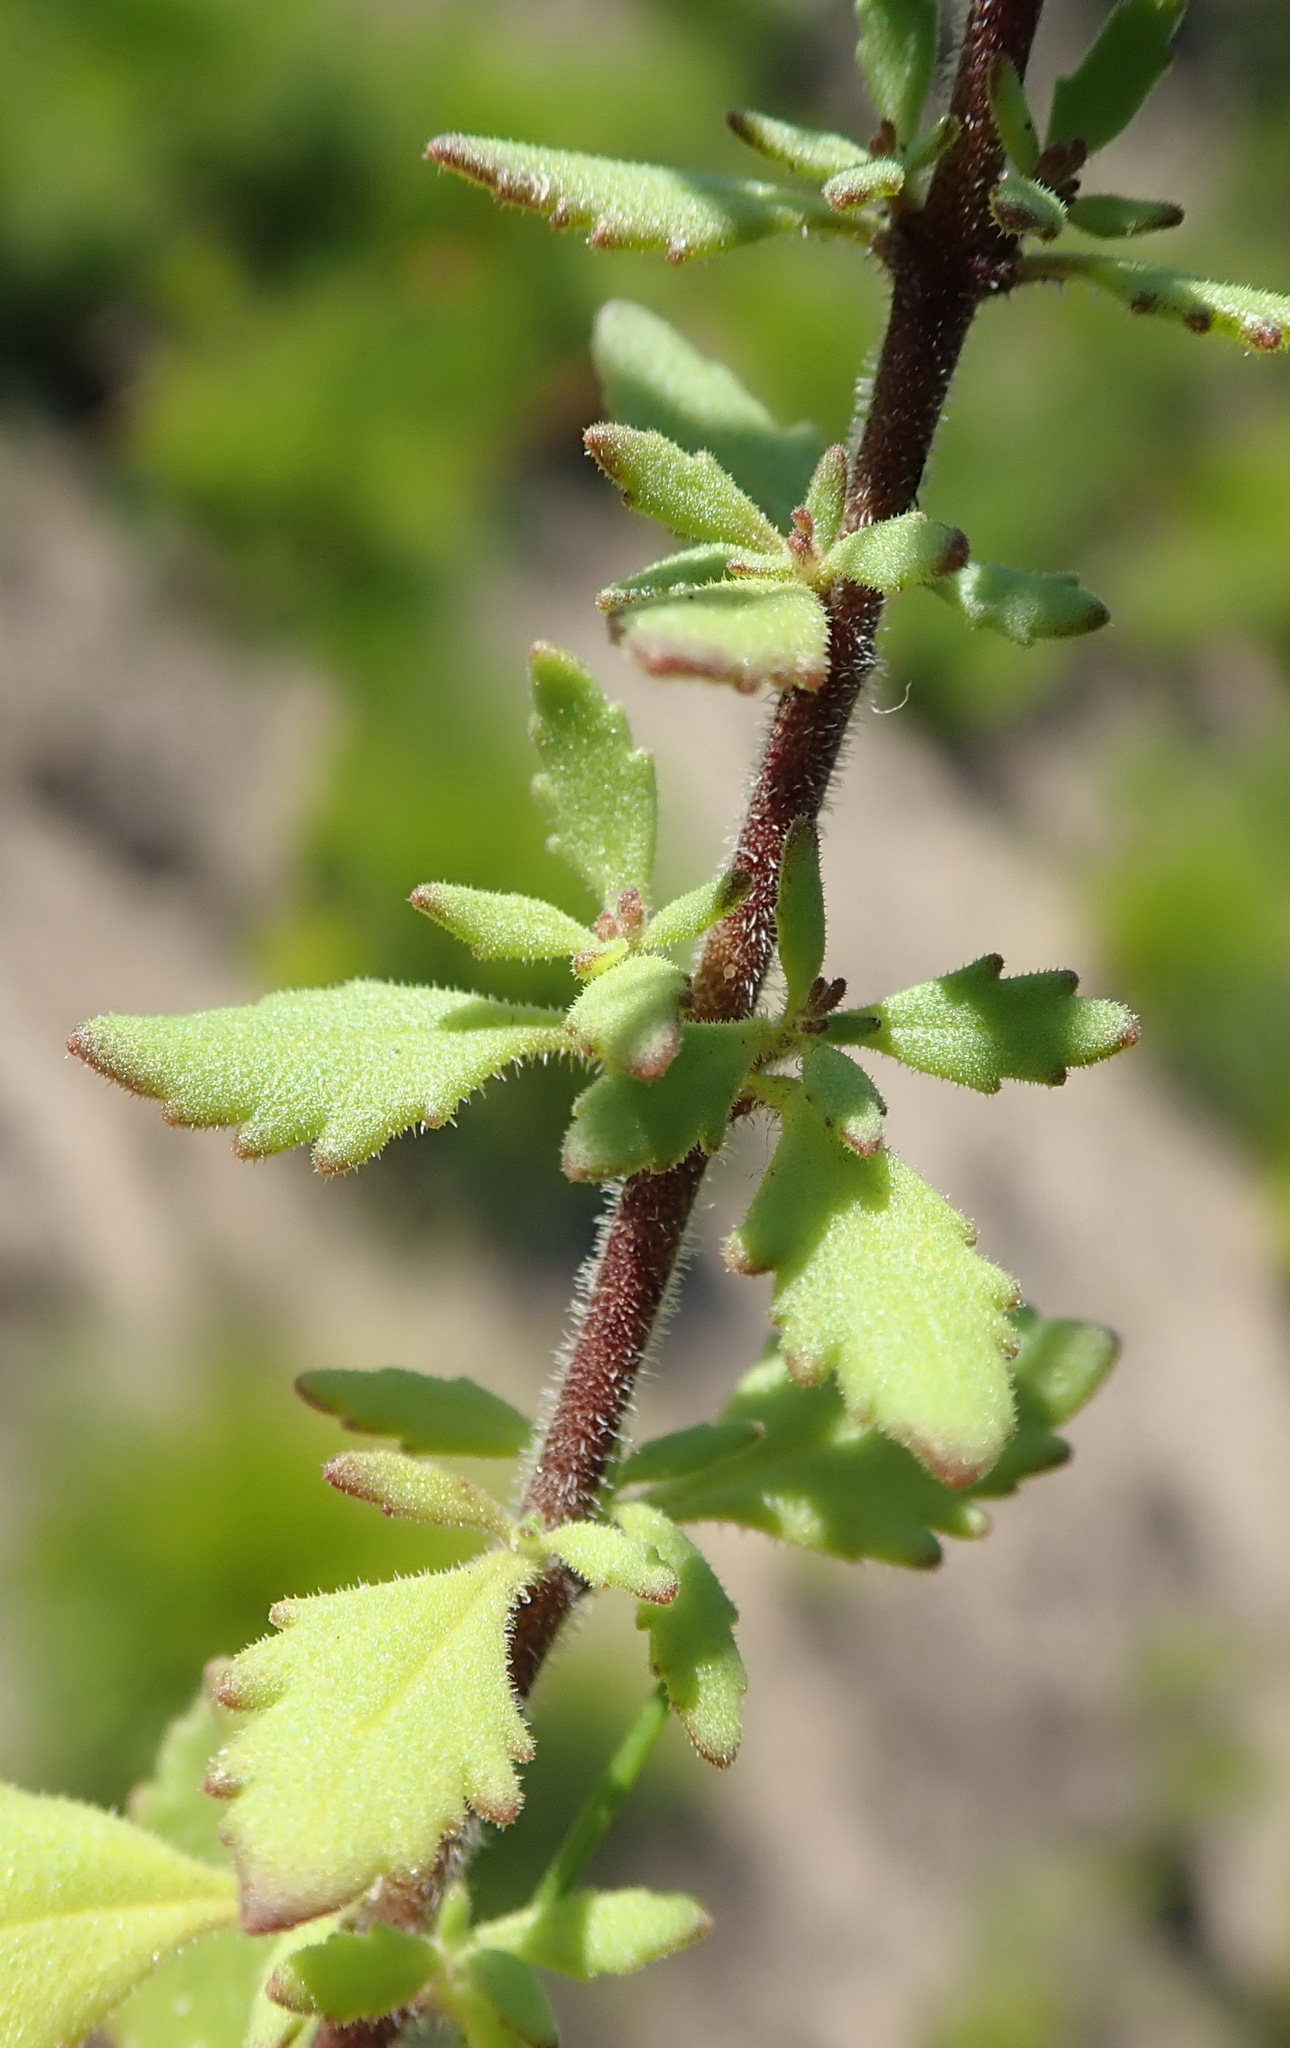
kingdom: Plantae
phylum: Tracheophyta
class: Magnoliopsida
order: Lamiales
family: Scrophulariaceae
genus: Chaenostoma
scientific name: Chaenostoma polyanthum
